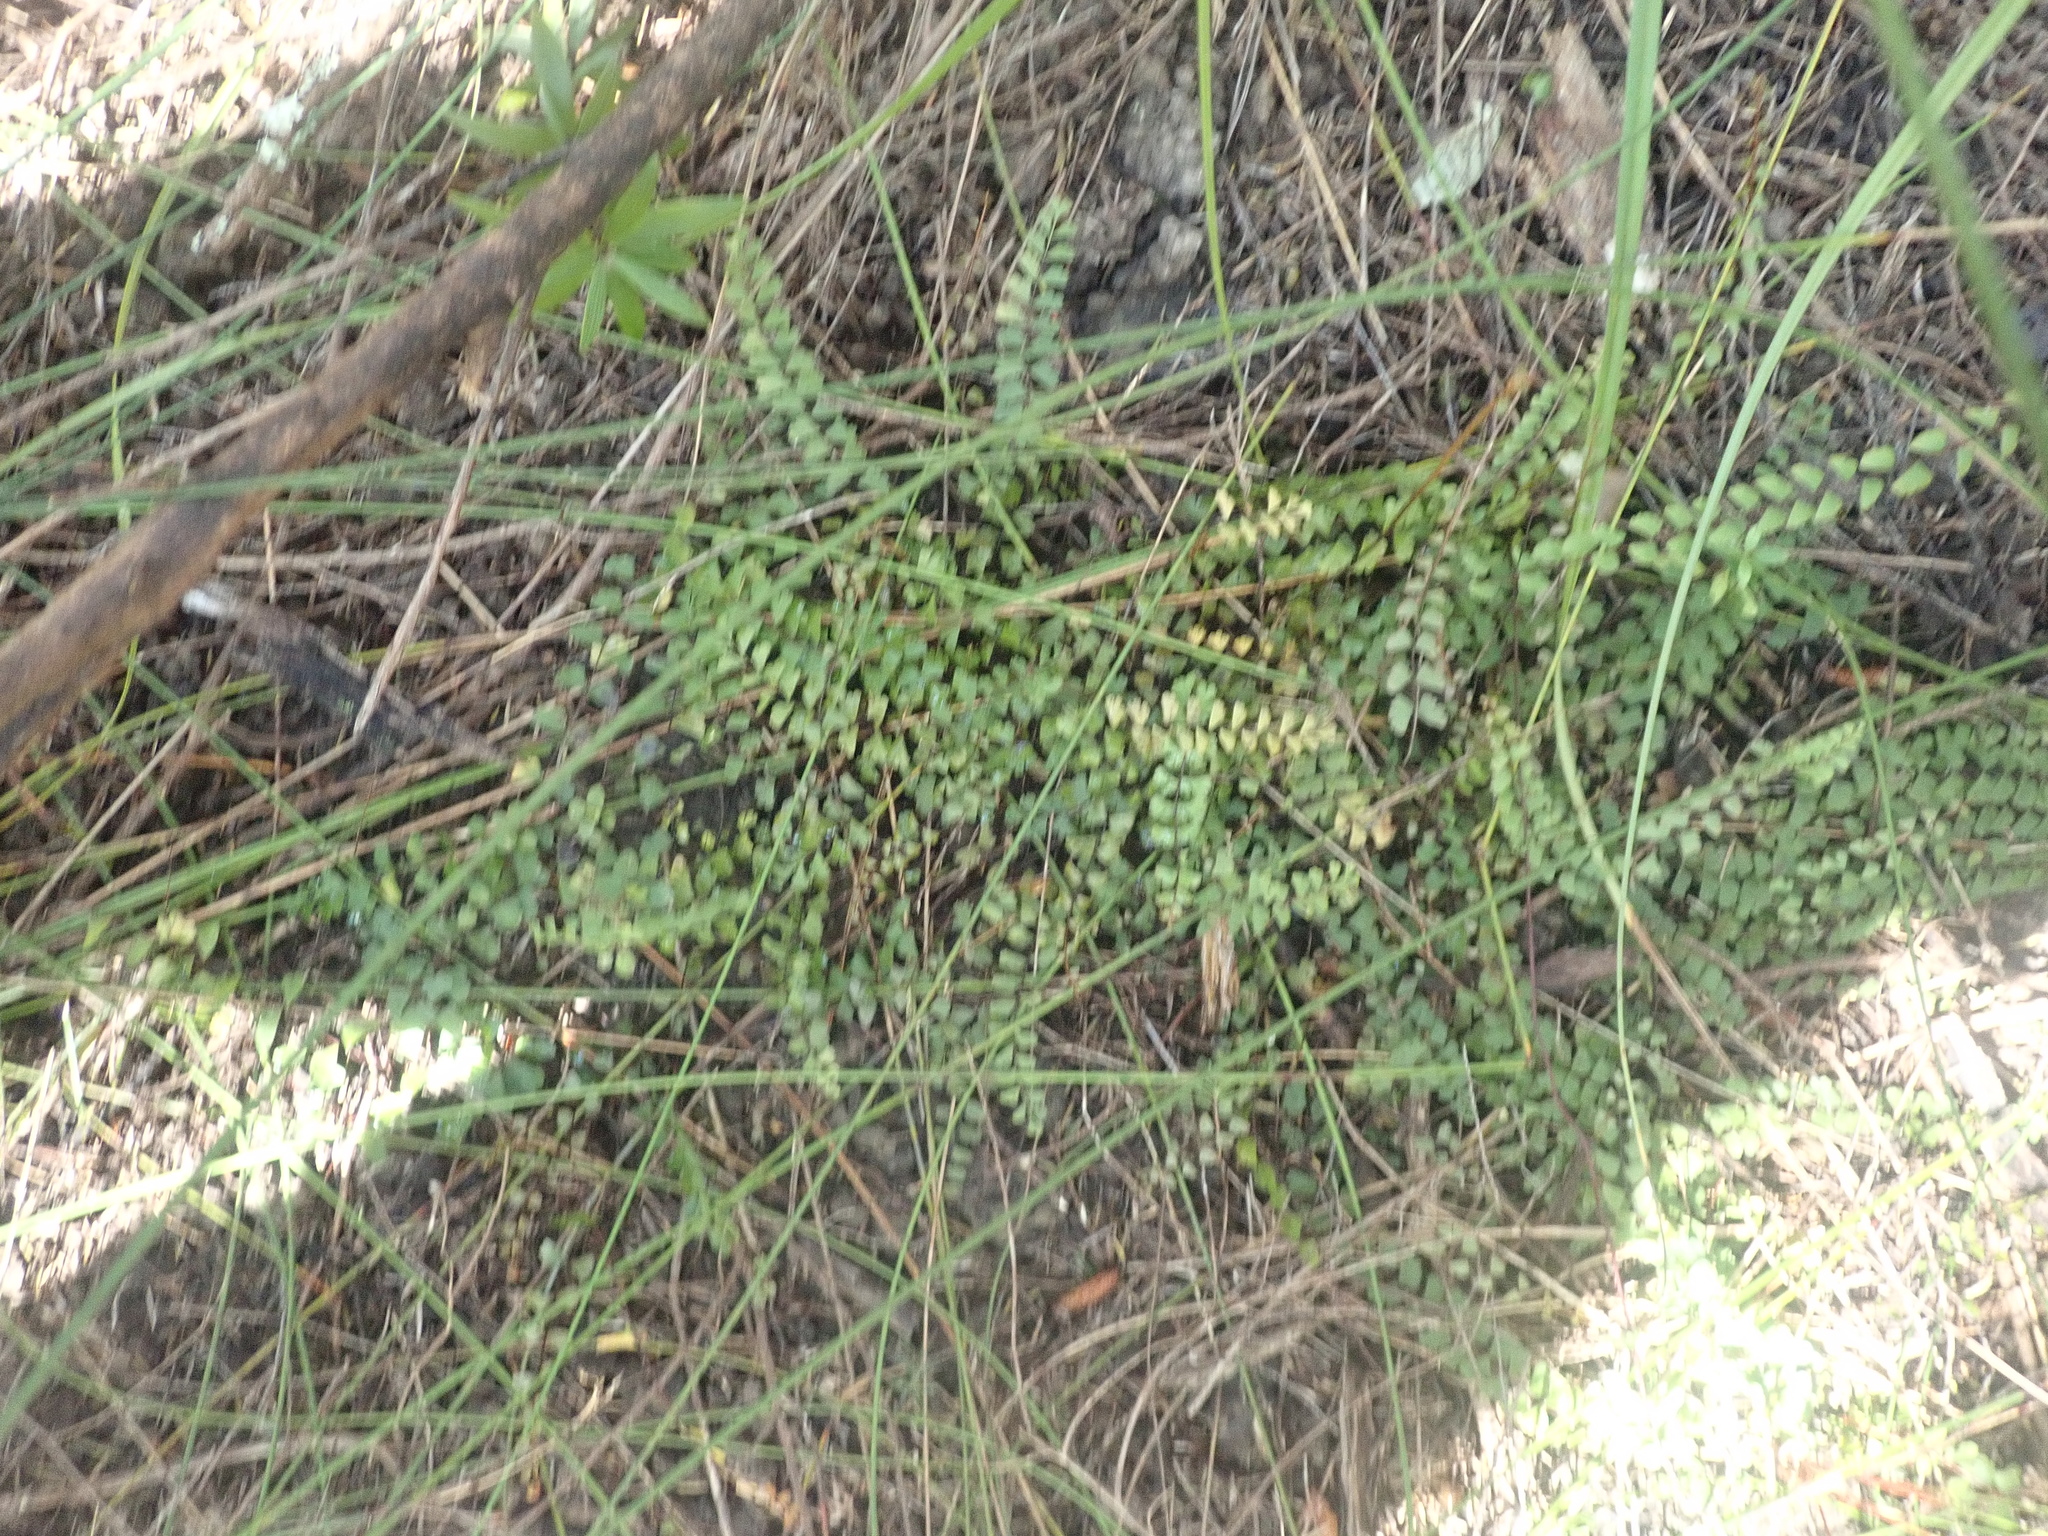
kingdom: Plantae
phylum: Tracheophyta
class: Polypodiopsida
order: Polypodiales
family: Lindsaeaceae
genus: Lindsaea
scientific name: Lindsaea linearis
